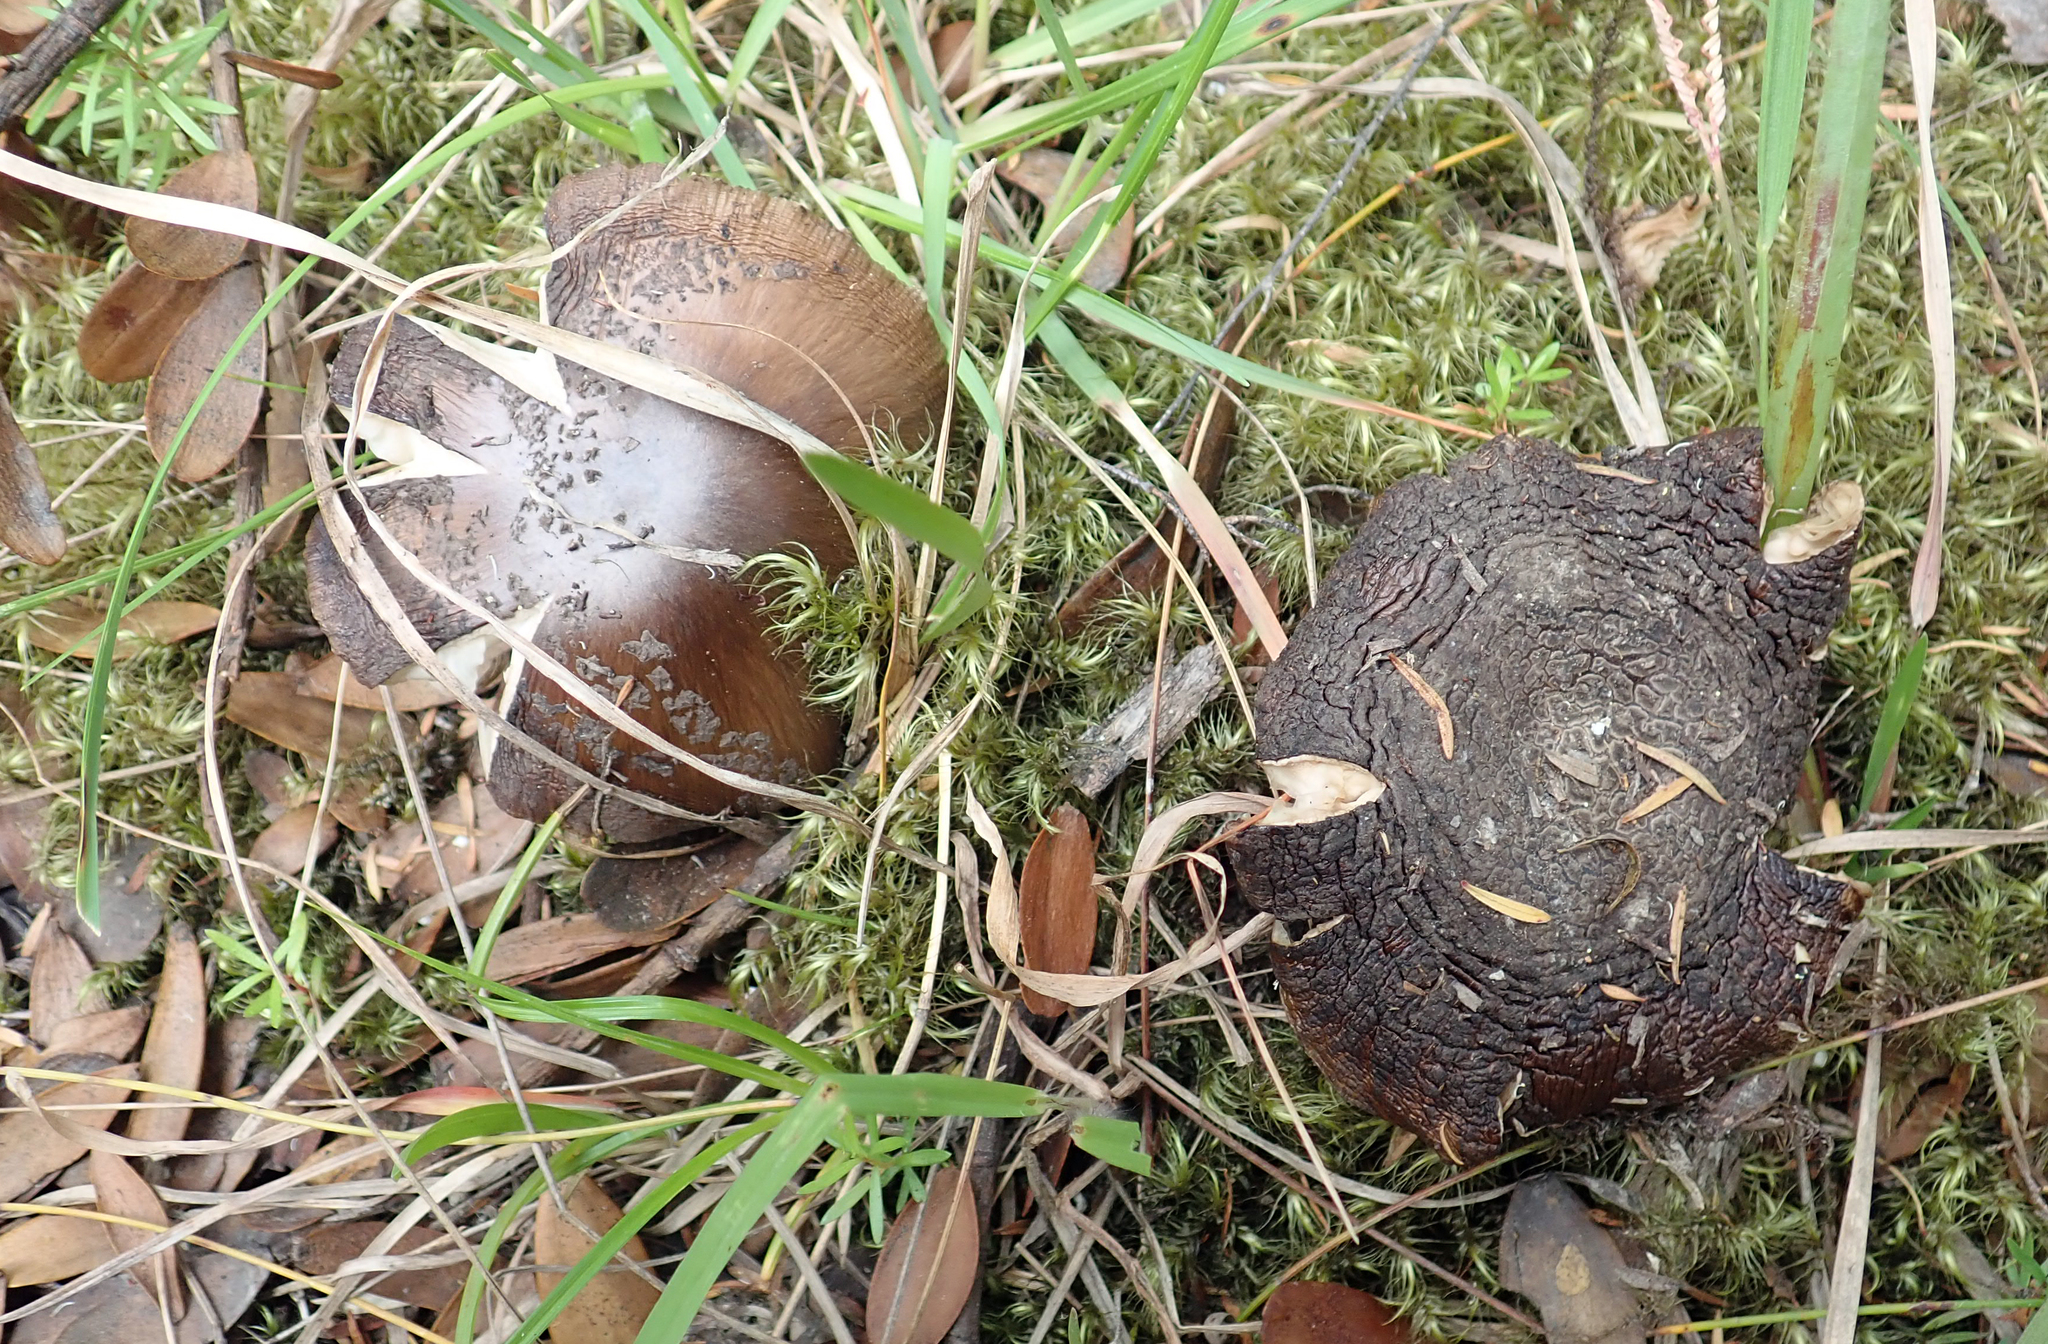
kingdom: Fungi
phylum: Basidiomycota
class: Agaricomycetes
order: Agaricales
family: Amanitaceae
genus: Amanita
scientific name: Amanita nothofagi
